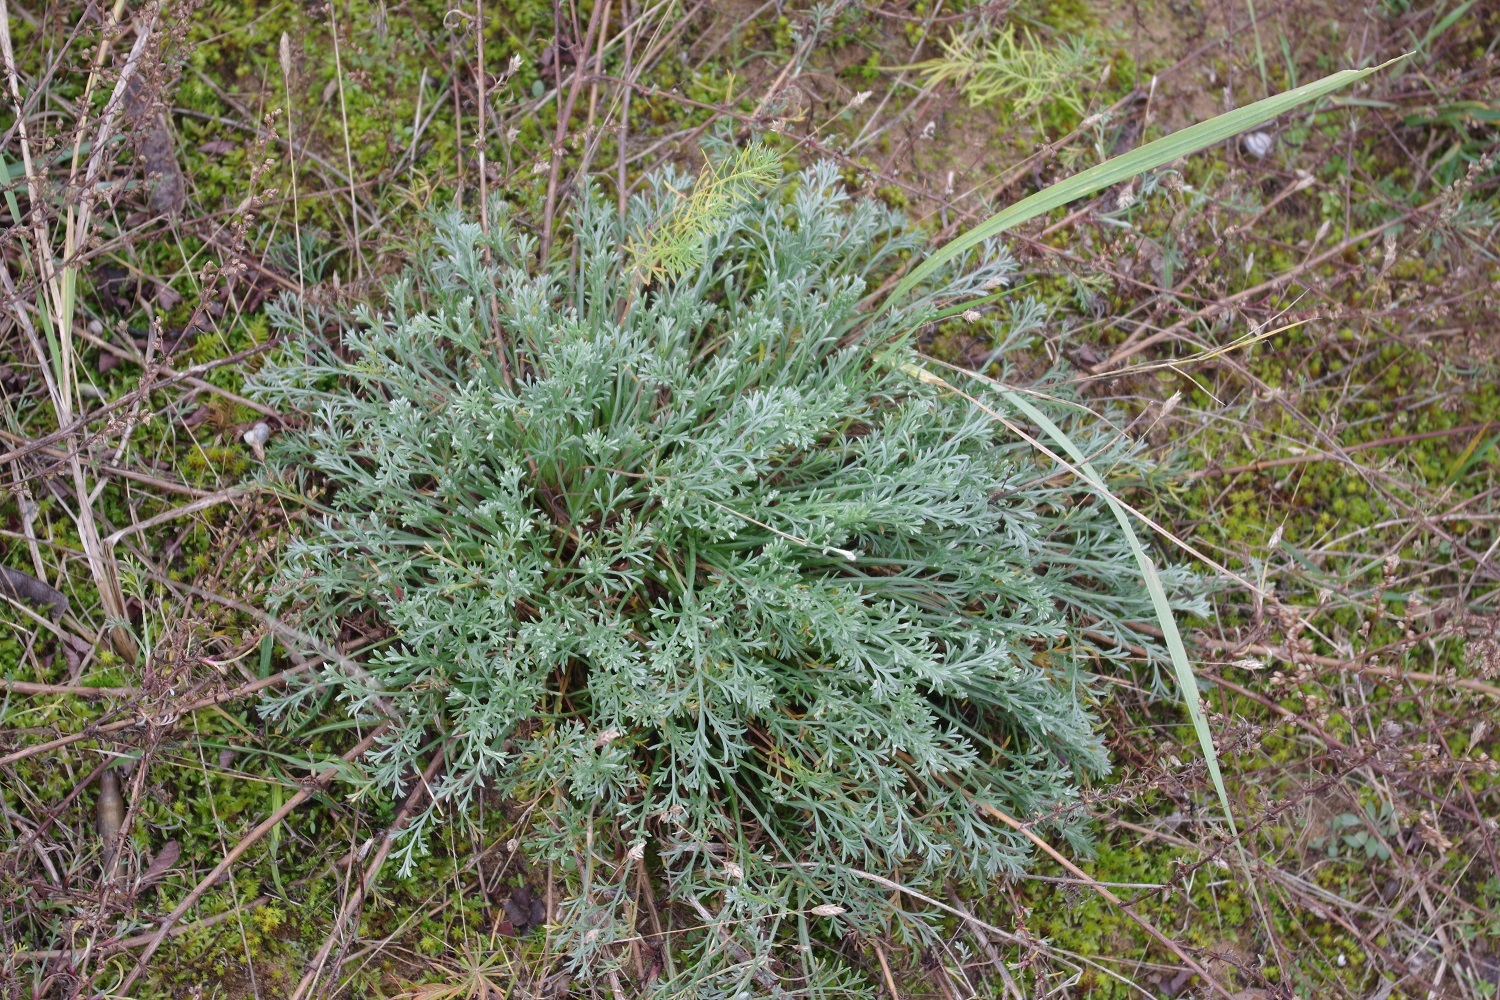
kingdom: Plantae
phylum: Tracheophyta
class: Magnoliopsida
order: Asterales
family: Asteraceae
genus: Artemisia
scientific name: Artemisia campestris
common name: Field wormwood
